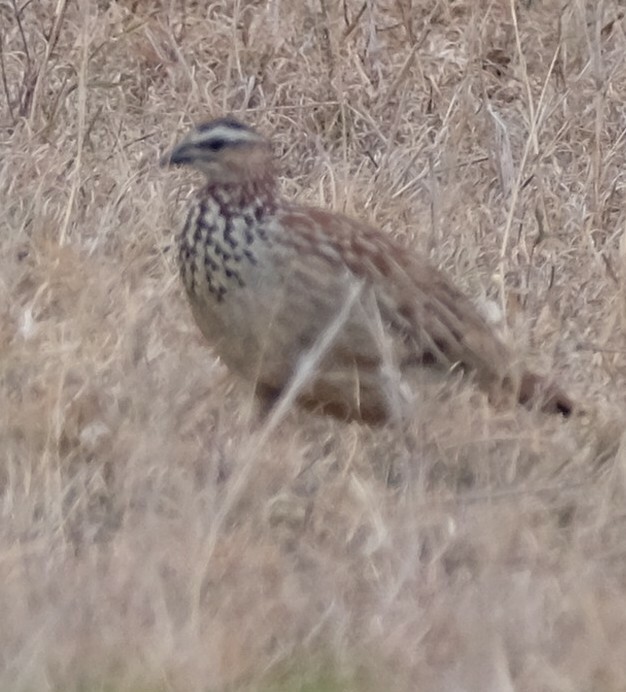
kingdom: Animalia
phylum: Chordata
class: Aves
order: Galliformes
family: Phasianidae
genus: Ortygornis
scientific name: Ortygornis sephaena
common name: Crested francolin
